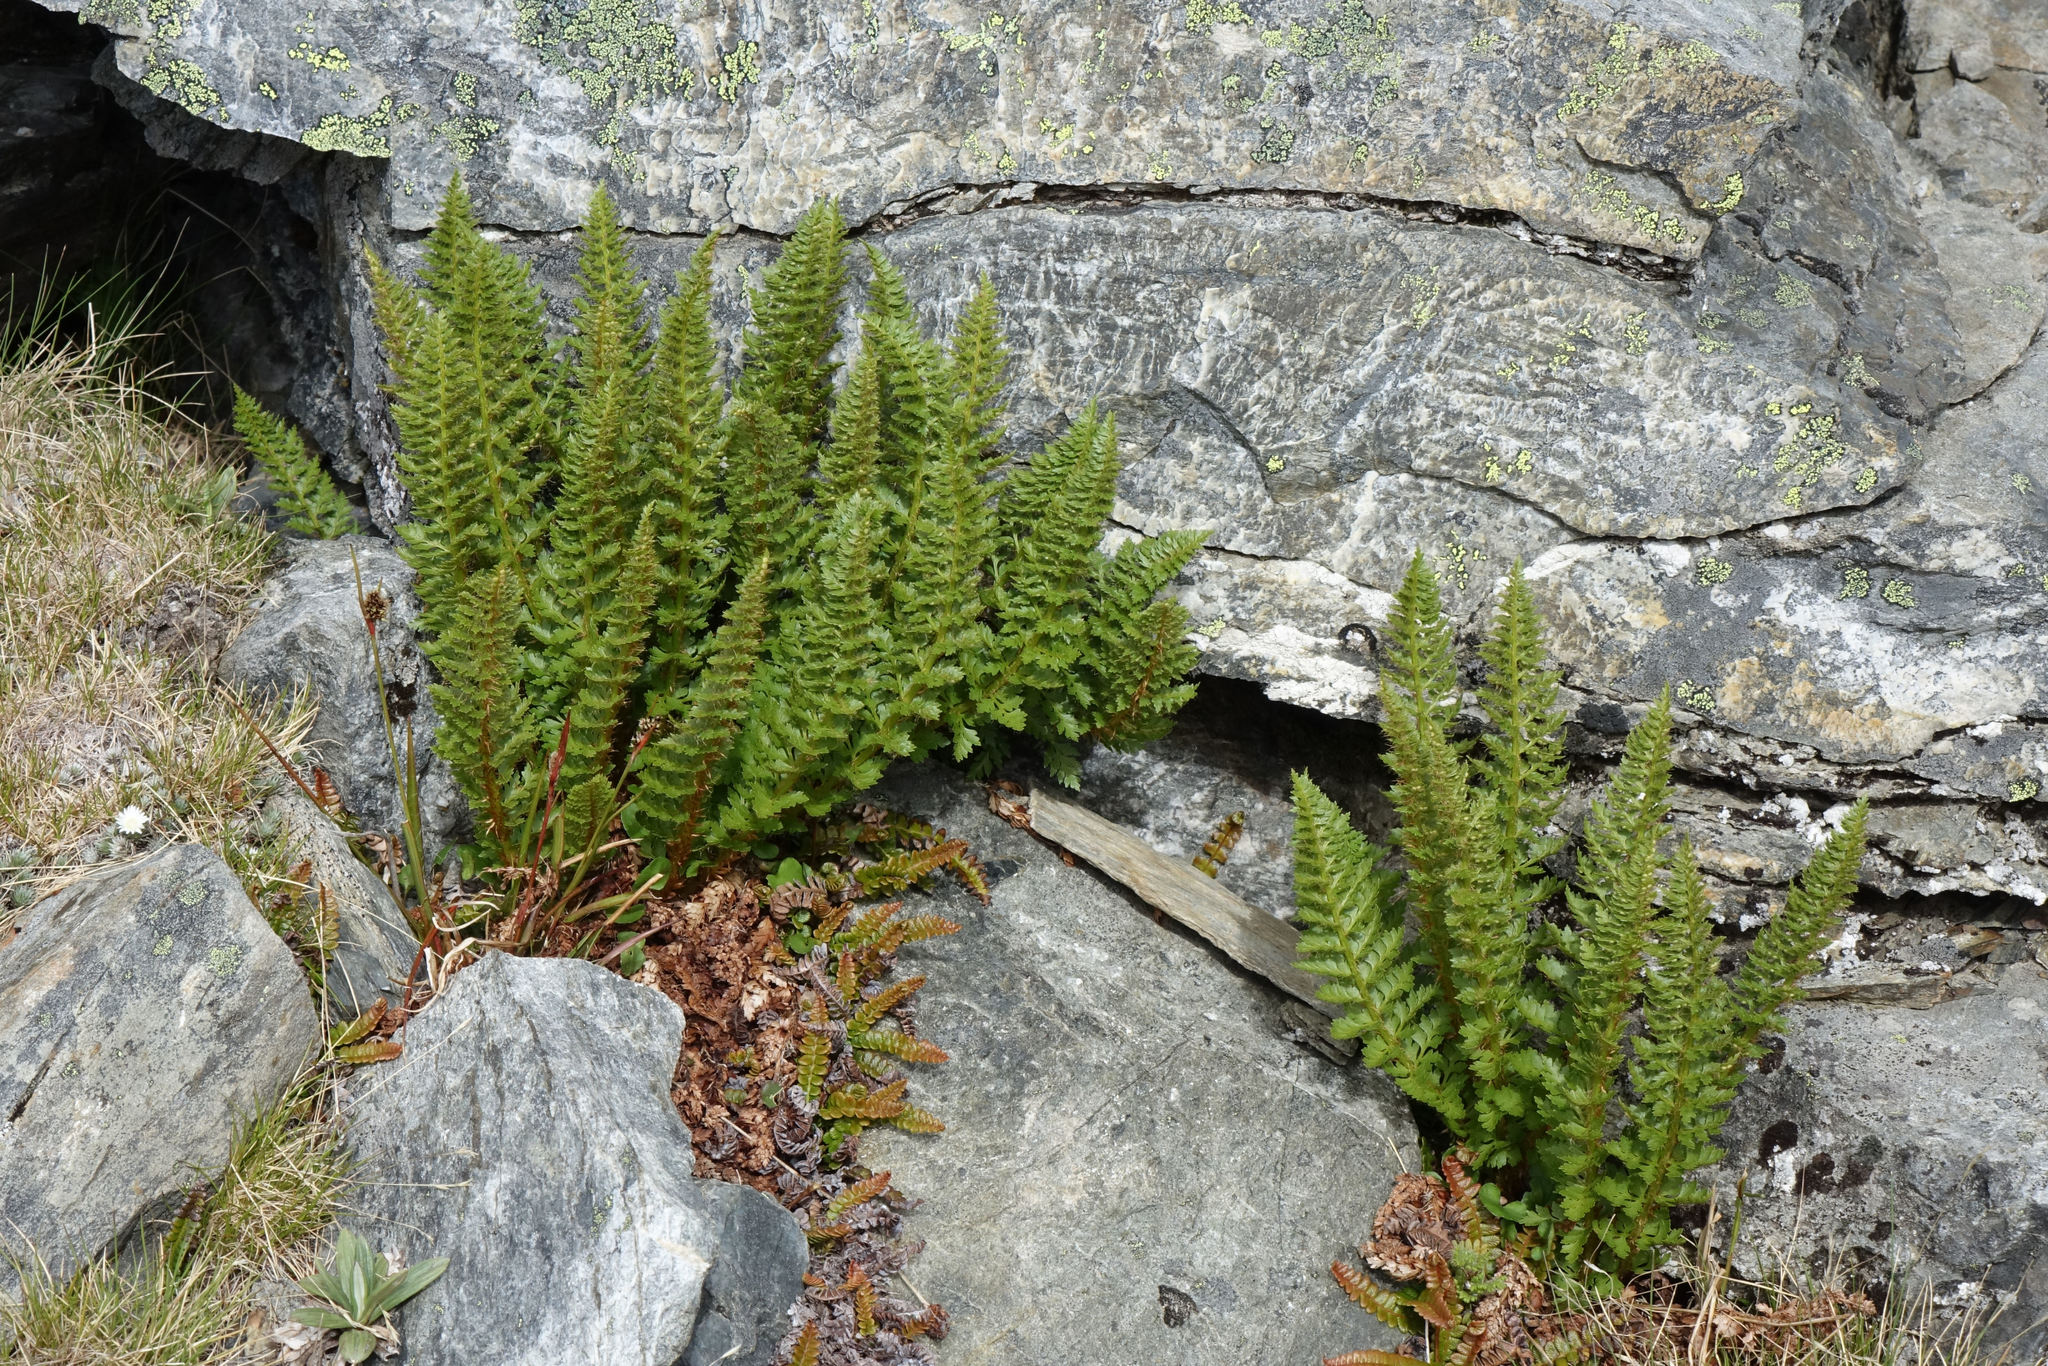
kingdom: Plantae
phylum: Tracheophyta
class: Polypodiopsida
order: Polypodiales
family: Dryopteridaceae
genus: Polystichum
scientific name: Polystichum cystostegia
